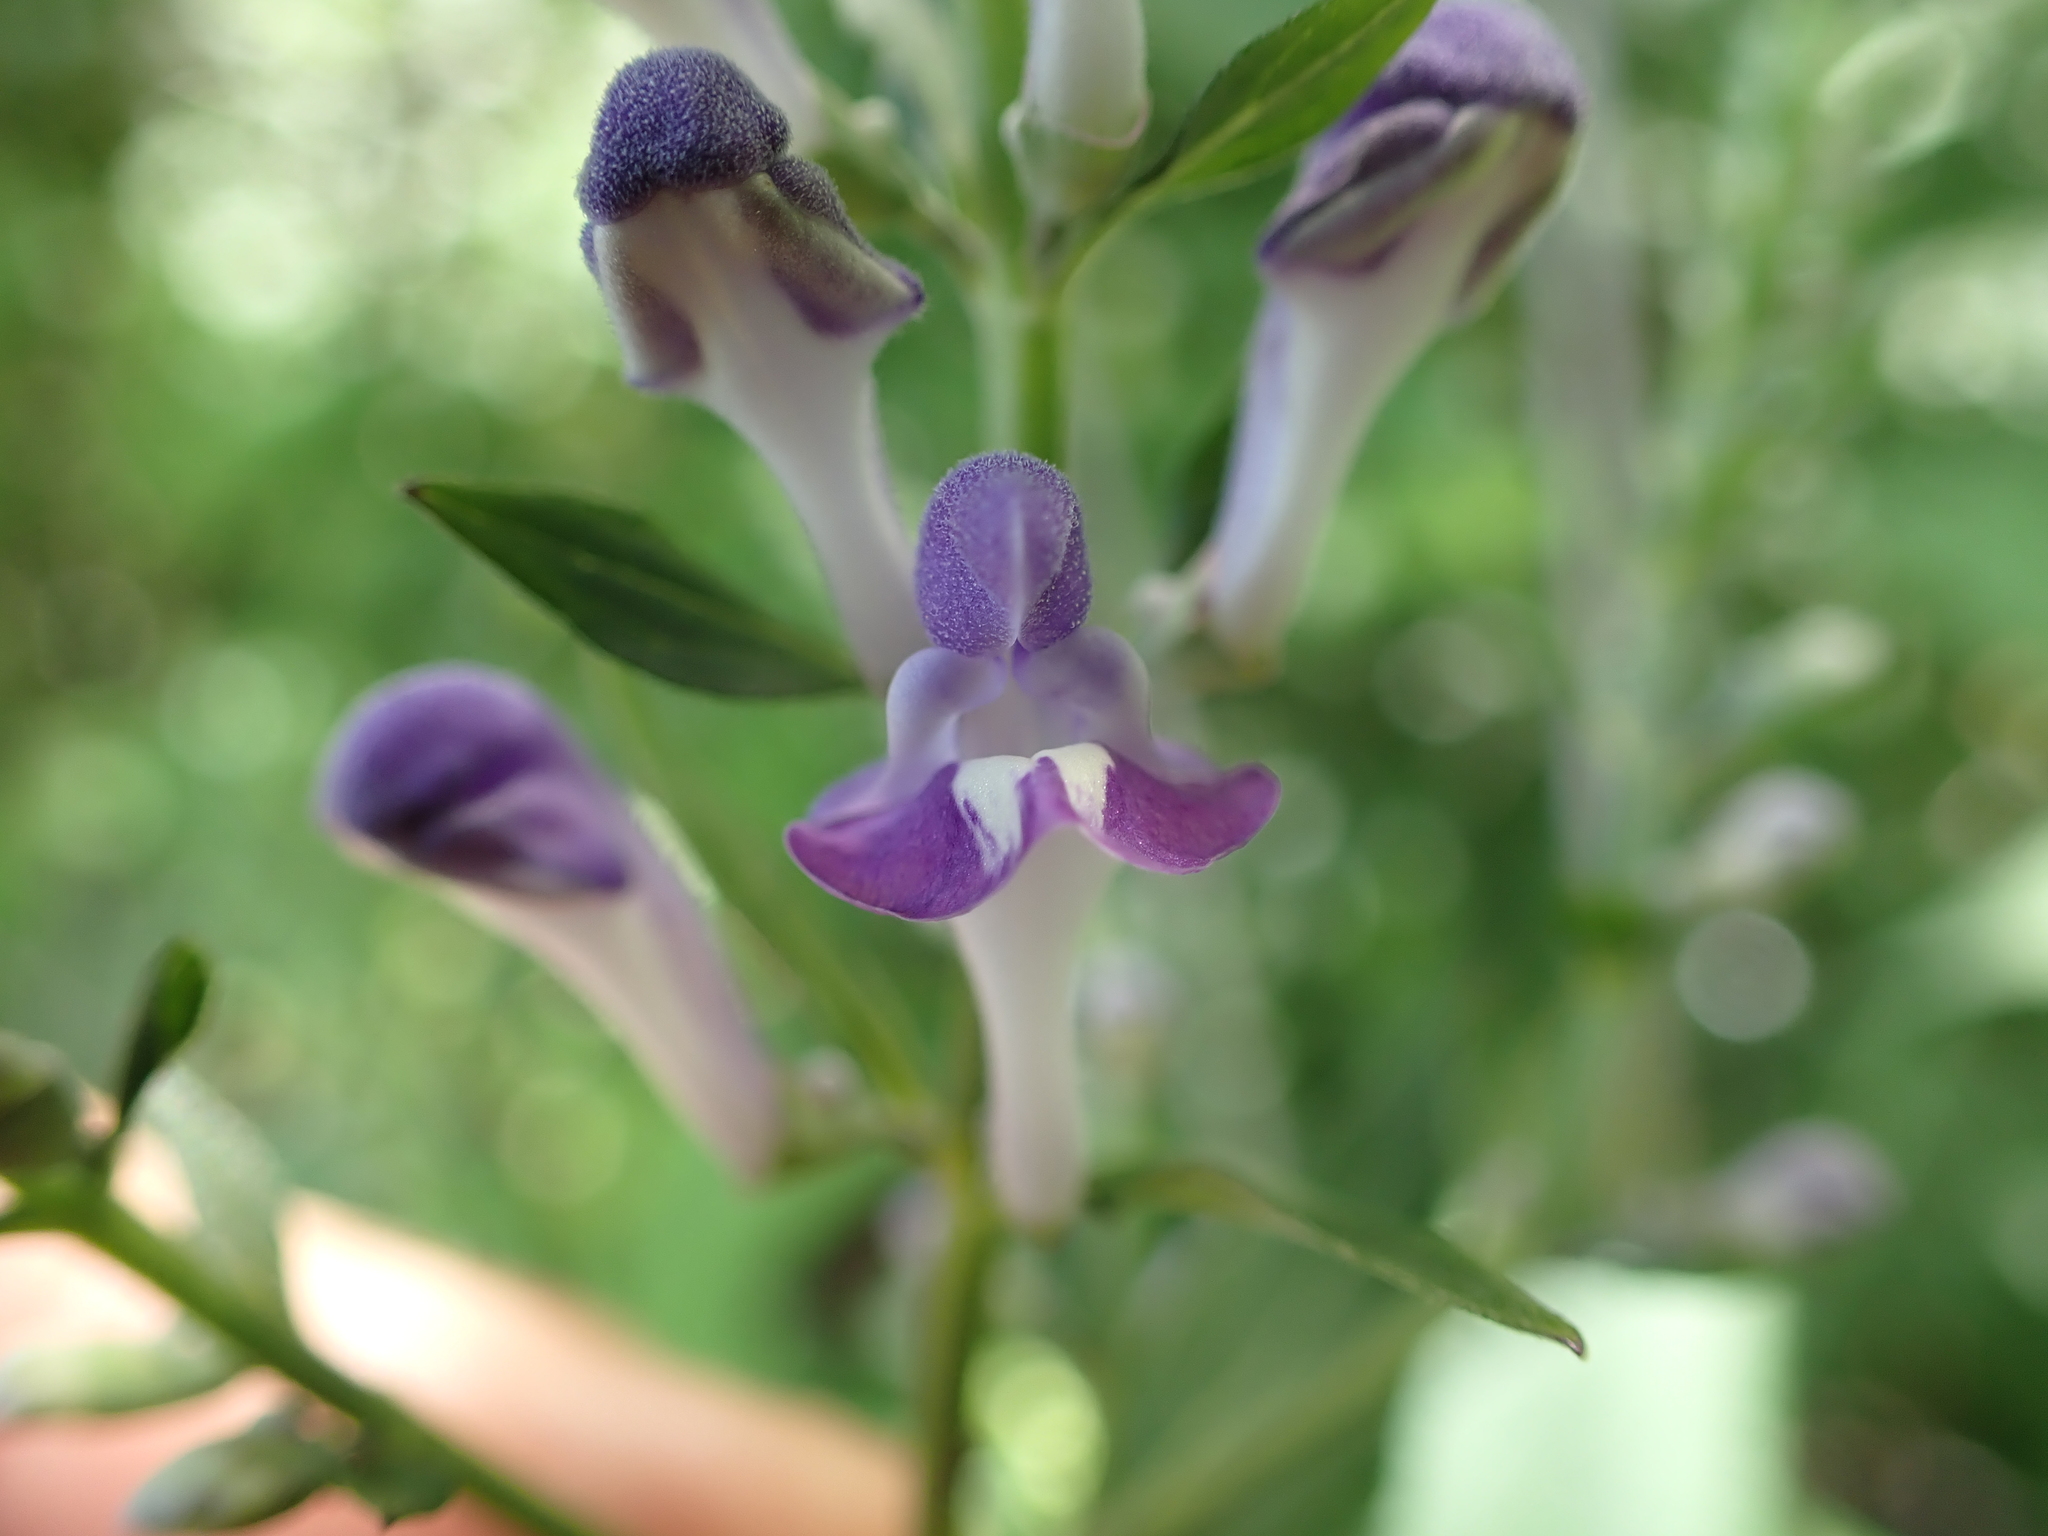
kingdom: Plantae
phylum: Tracheophyta
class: Magnoliopsida
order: Lamiales
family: Lamiaceae
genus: Scutellaria
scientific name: Scutellaria incana
